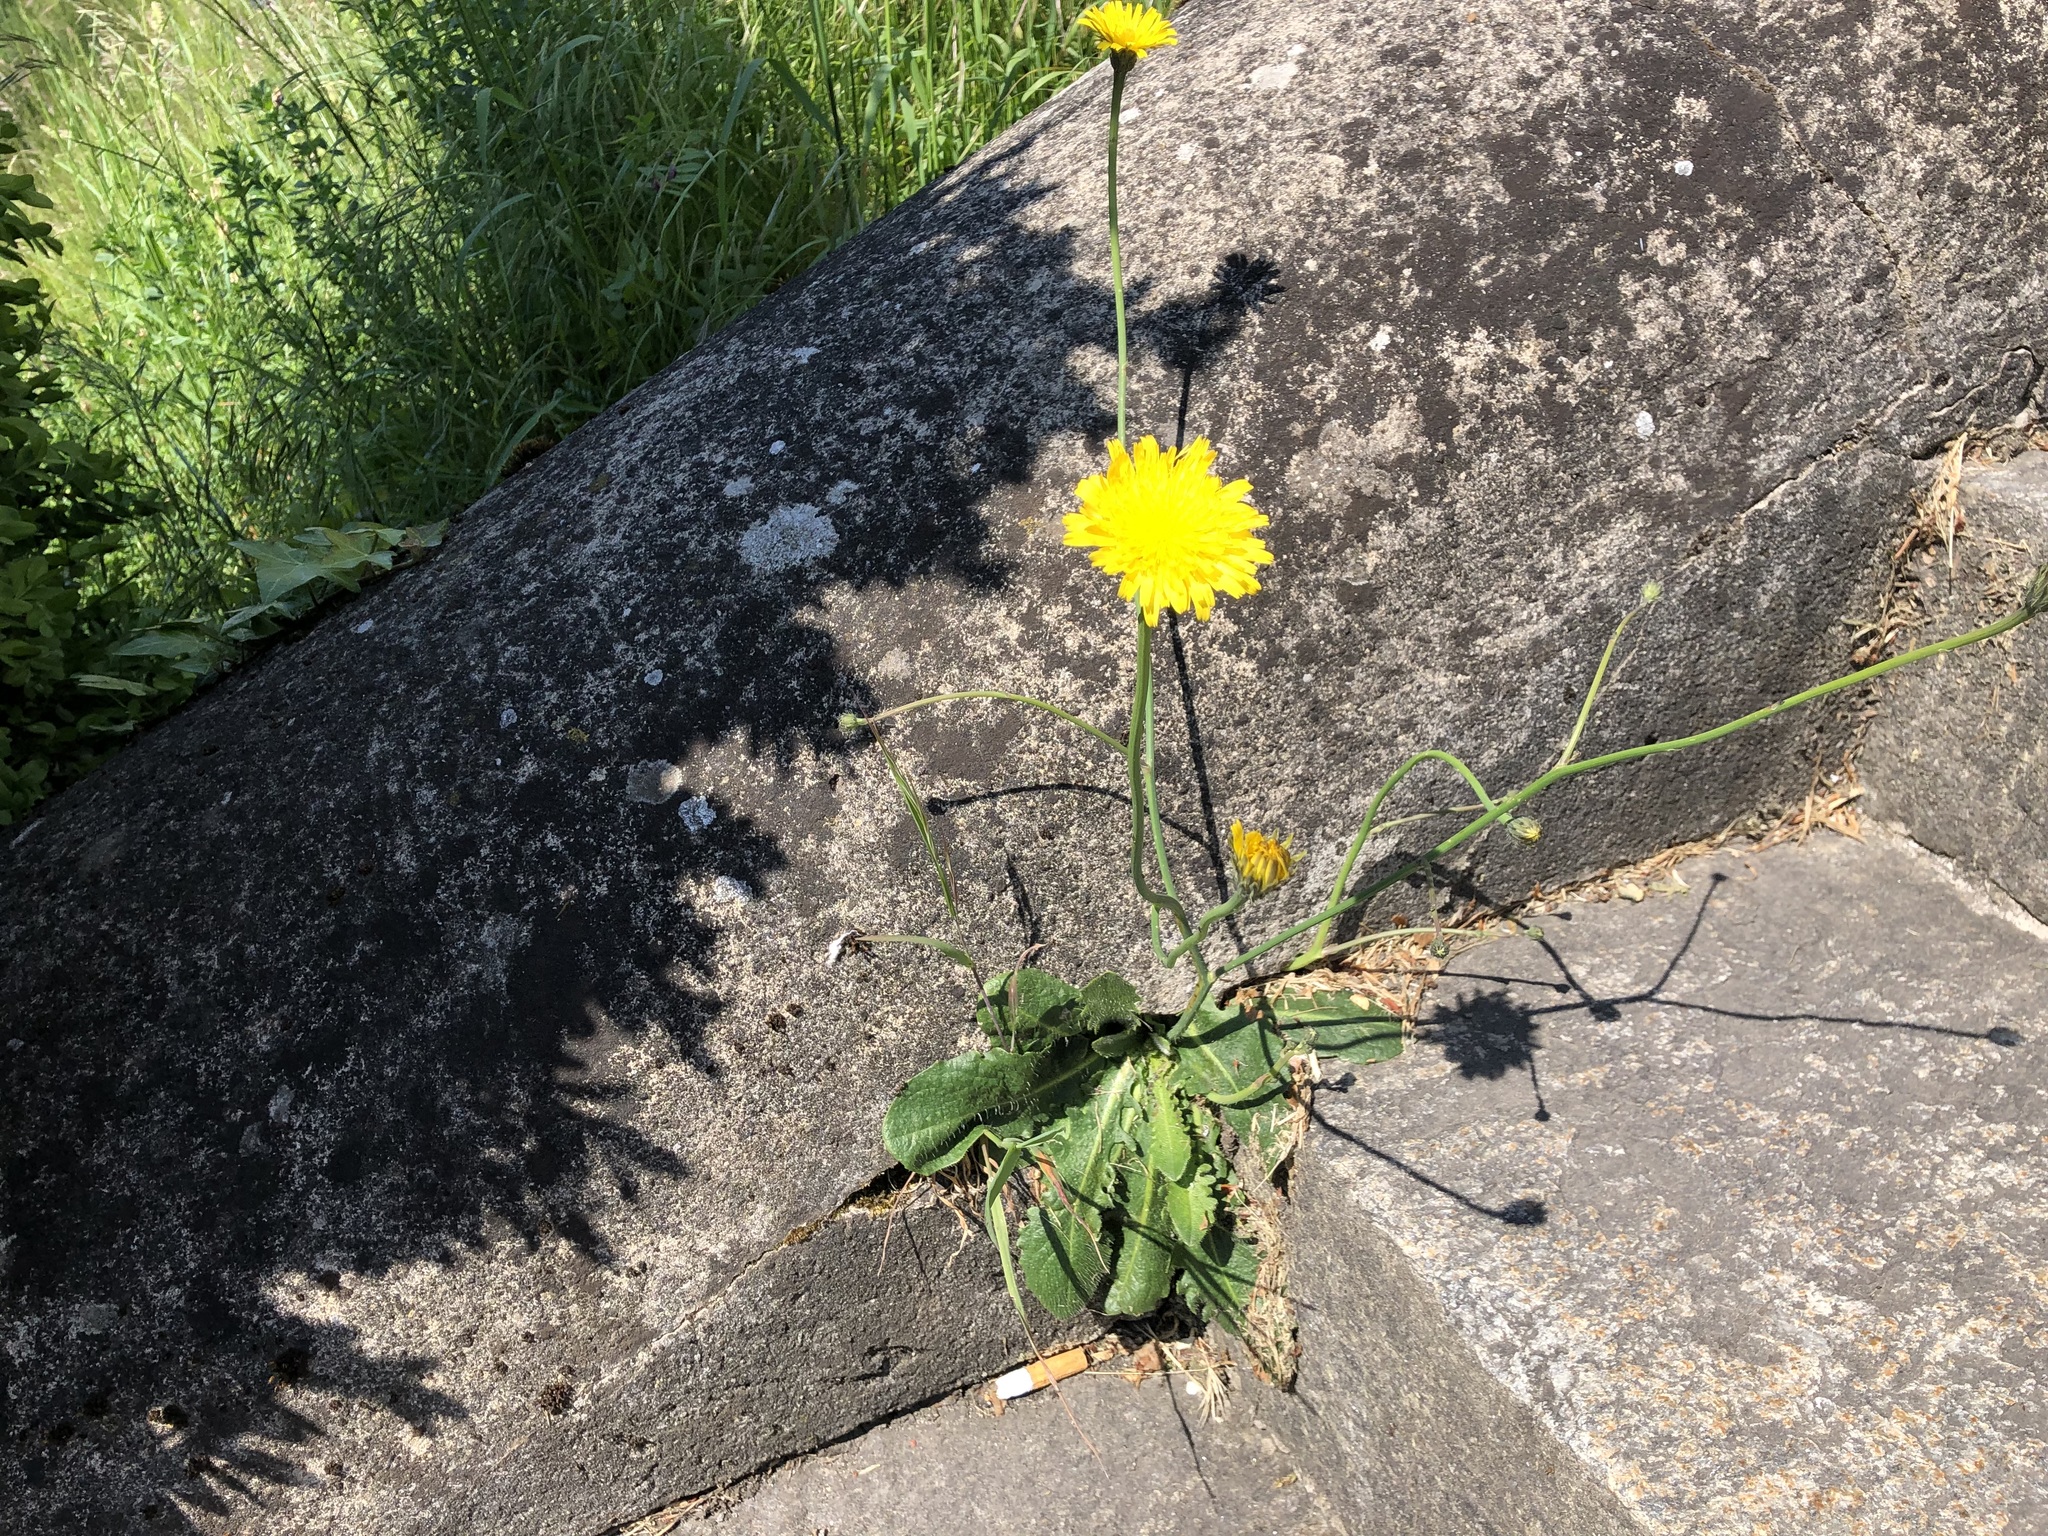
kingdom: Plantae
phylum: Tracheophyta
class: Magnoliopsida
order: Asterales
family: Asteraceae
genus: Hypochaeris
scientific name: Hypochaeris radicata
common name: Flatweed
